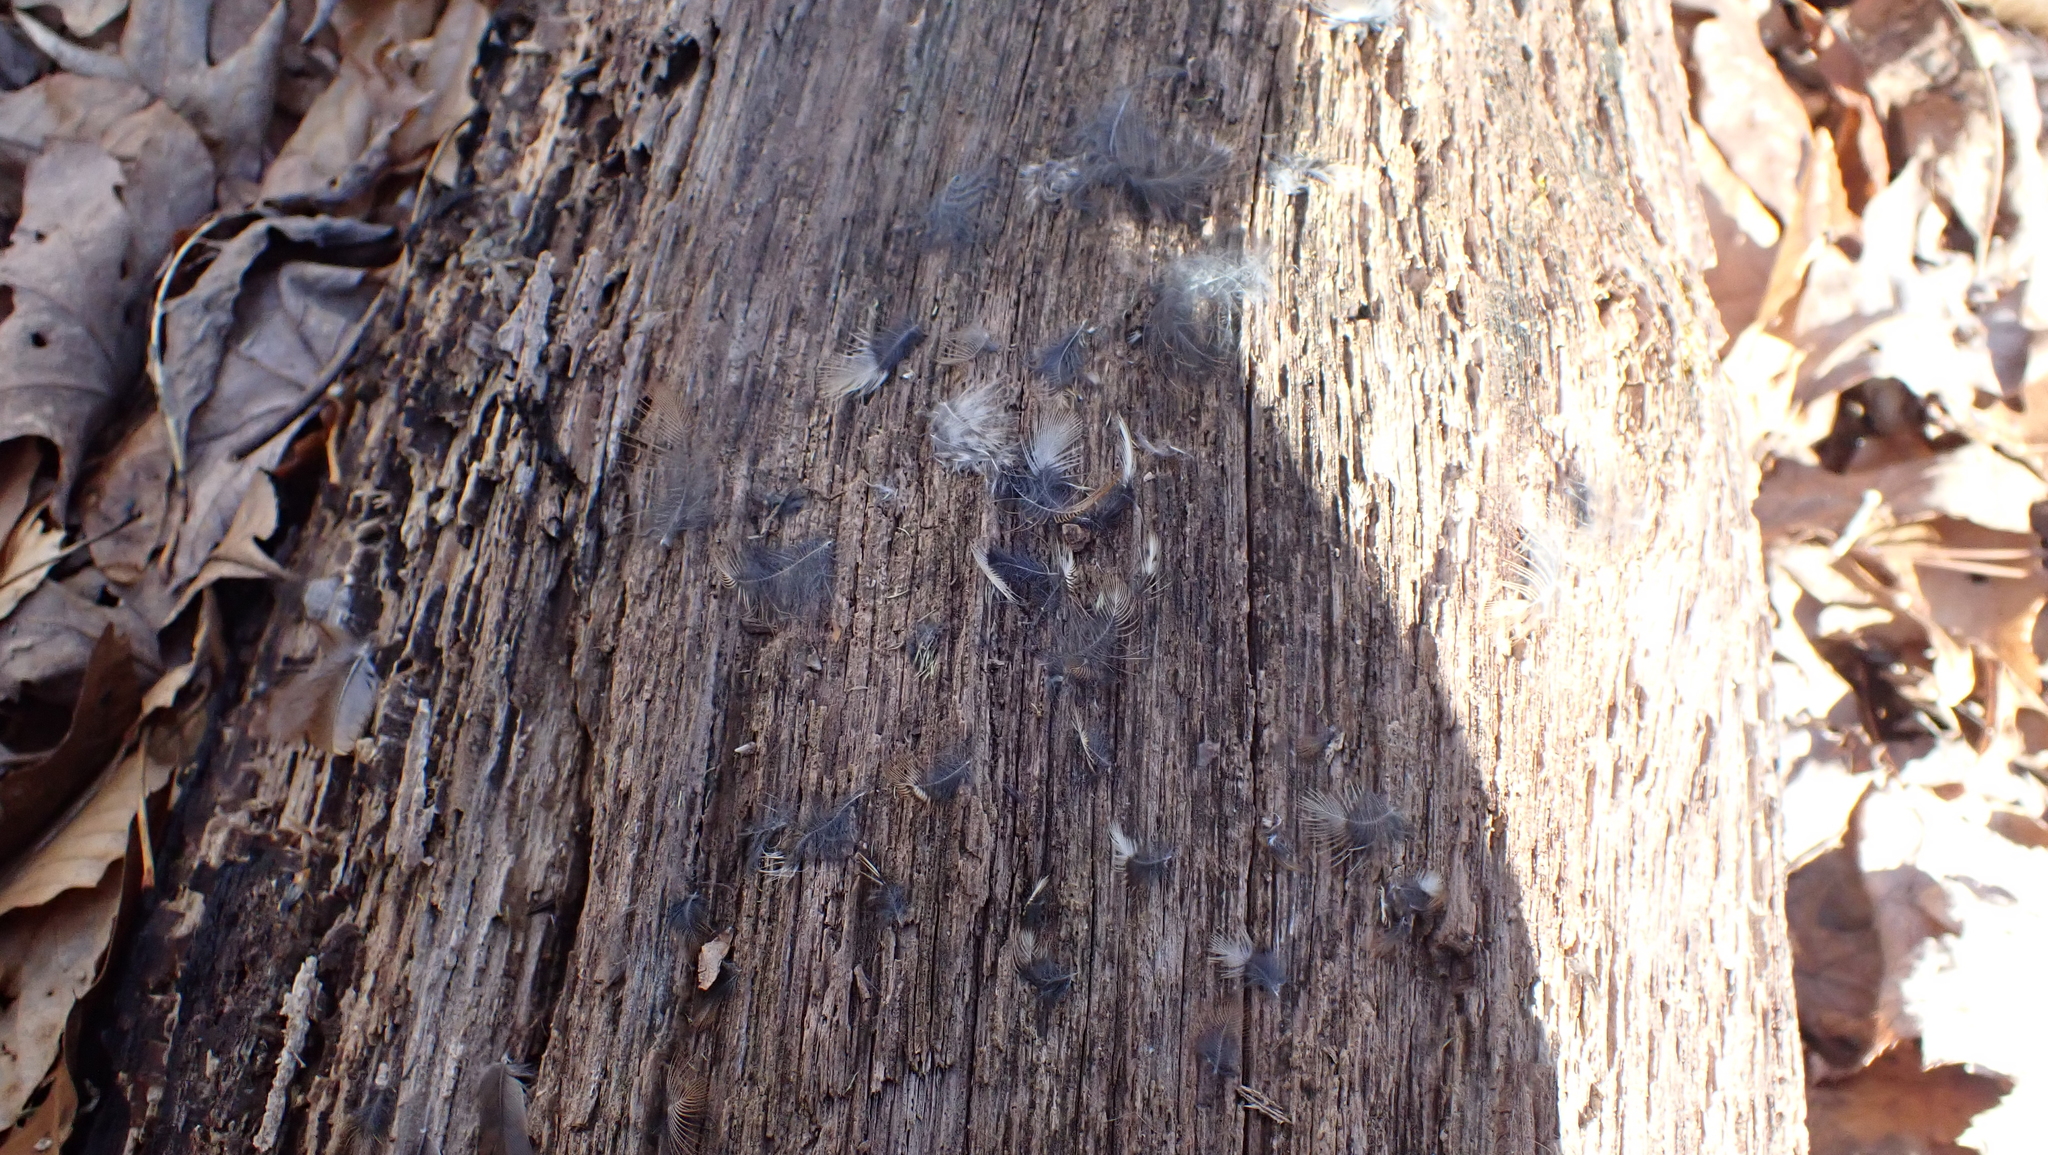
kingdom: Animalia
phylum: Chordata
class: Aves
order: Passeriformes
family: Troglodytidae
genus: Thryothorus
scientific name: Thryothorus ludovicianus
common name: Carolina wren
